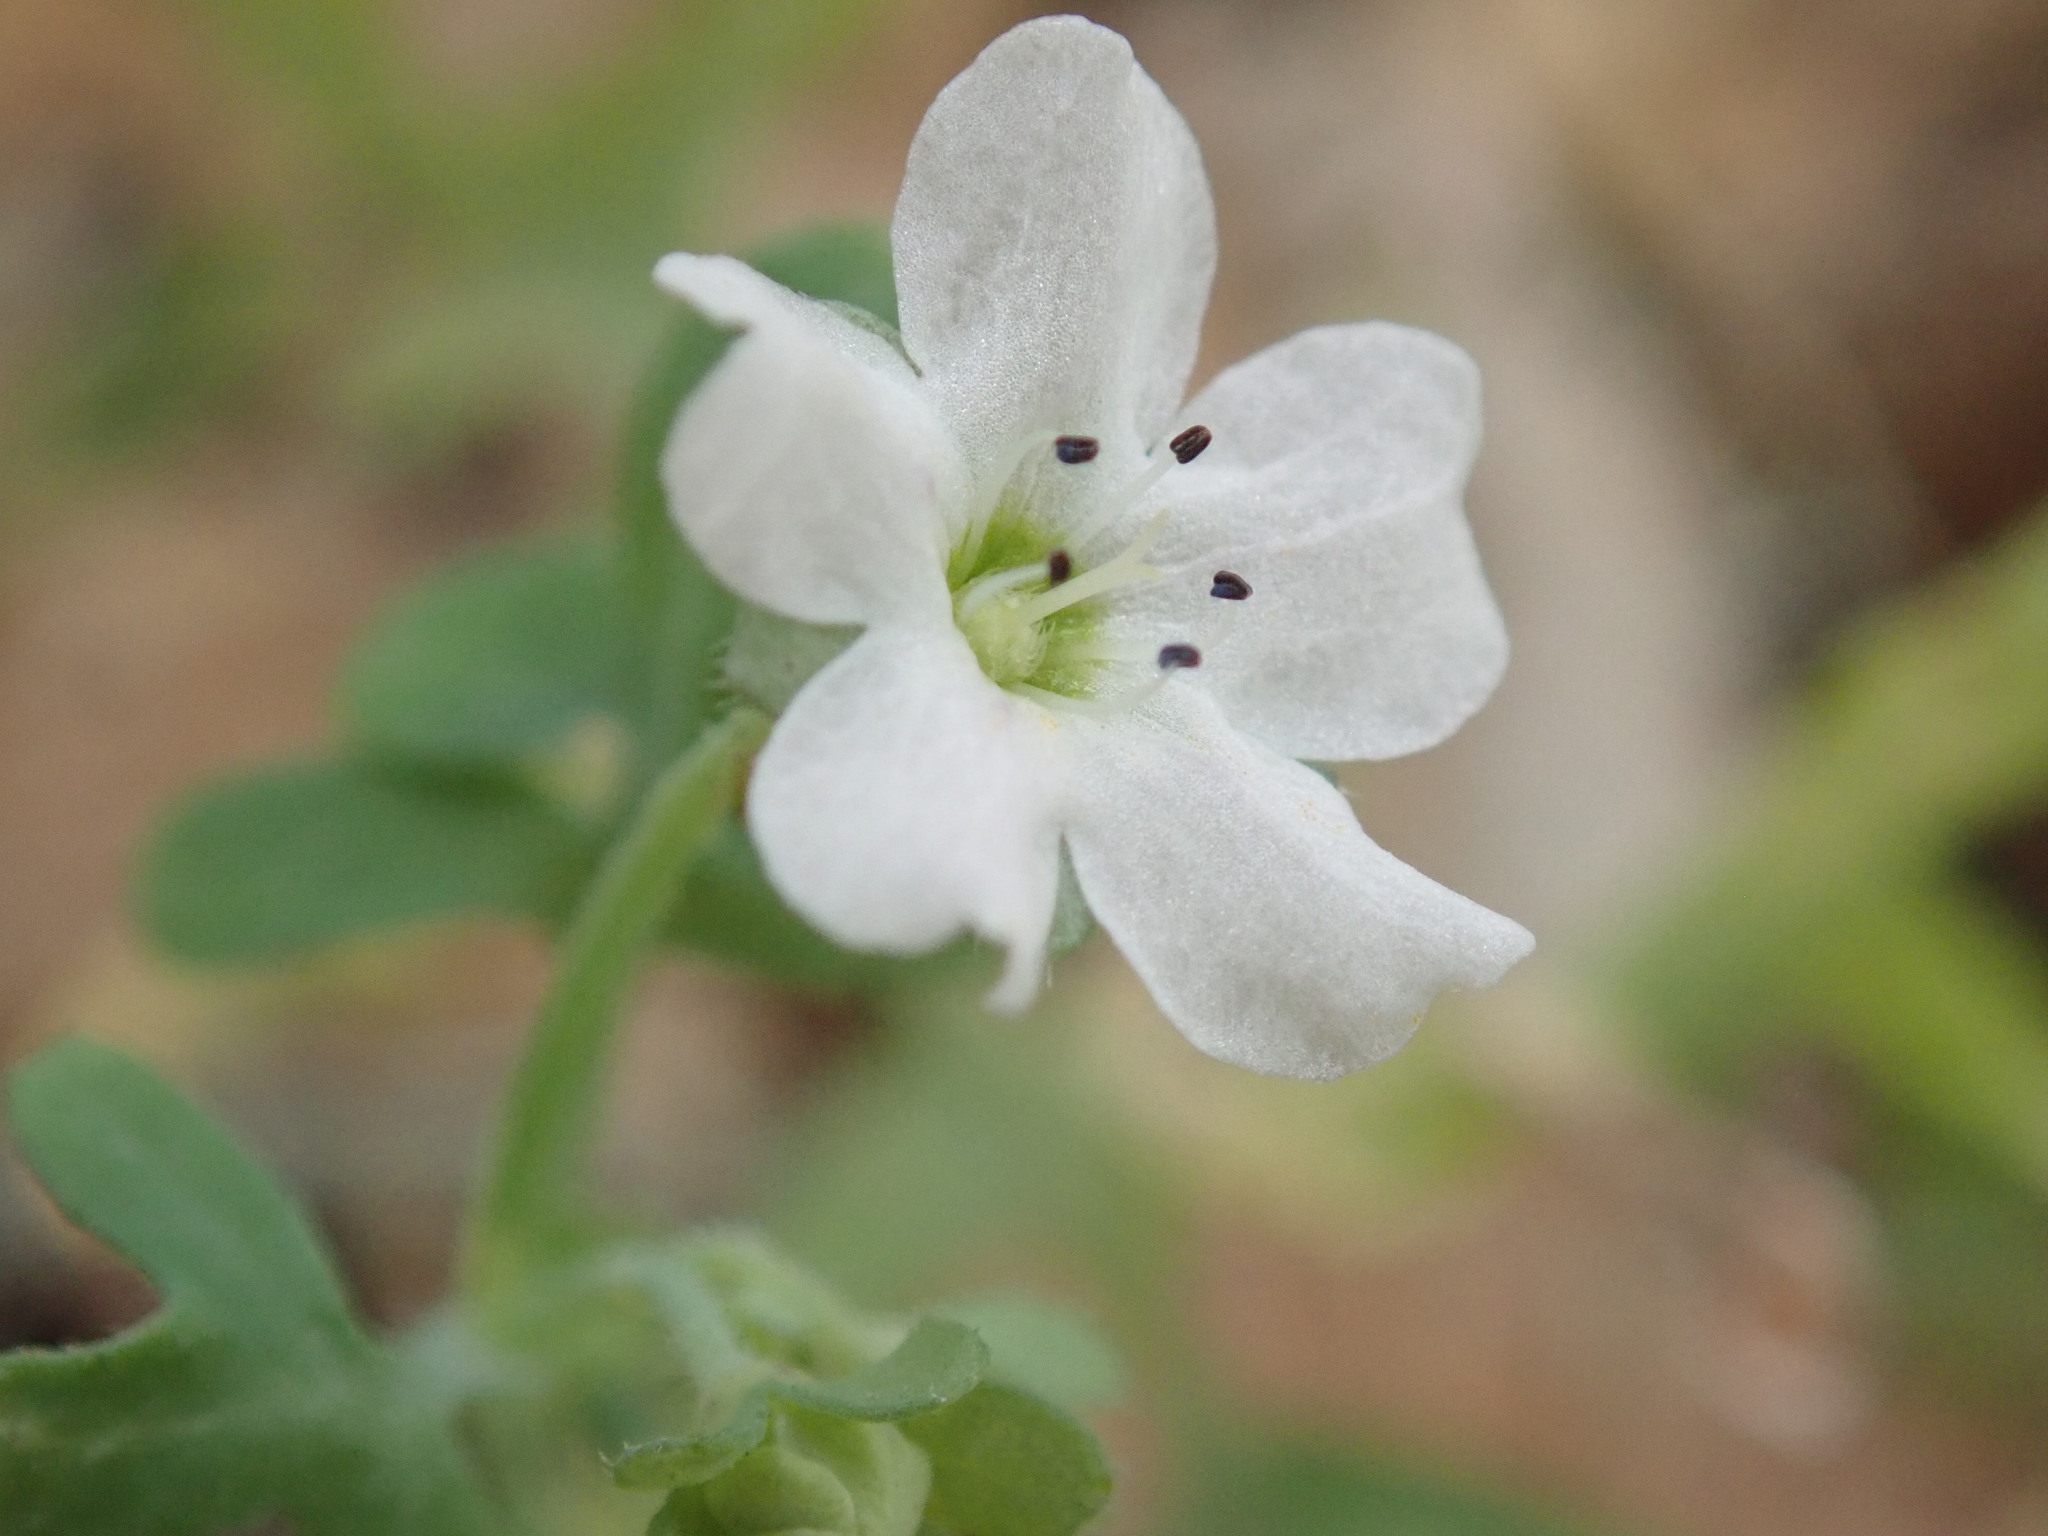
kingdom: Plantae
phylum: Tracheophyta
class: Magnoliopsida
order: Boraginales
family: Hydrophyllaceae
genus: Pholistoma
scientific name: Pholistoma membranaceum
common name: White fiesta-flower
